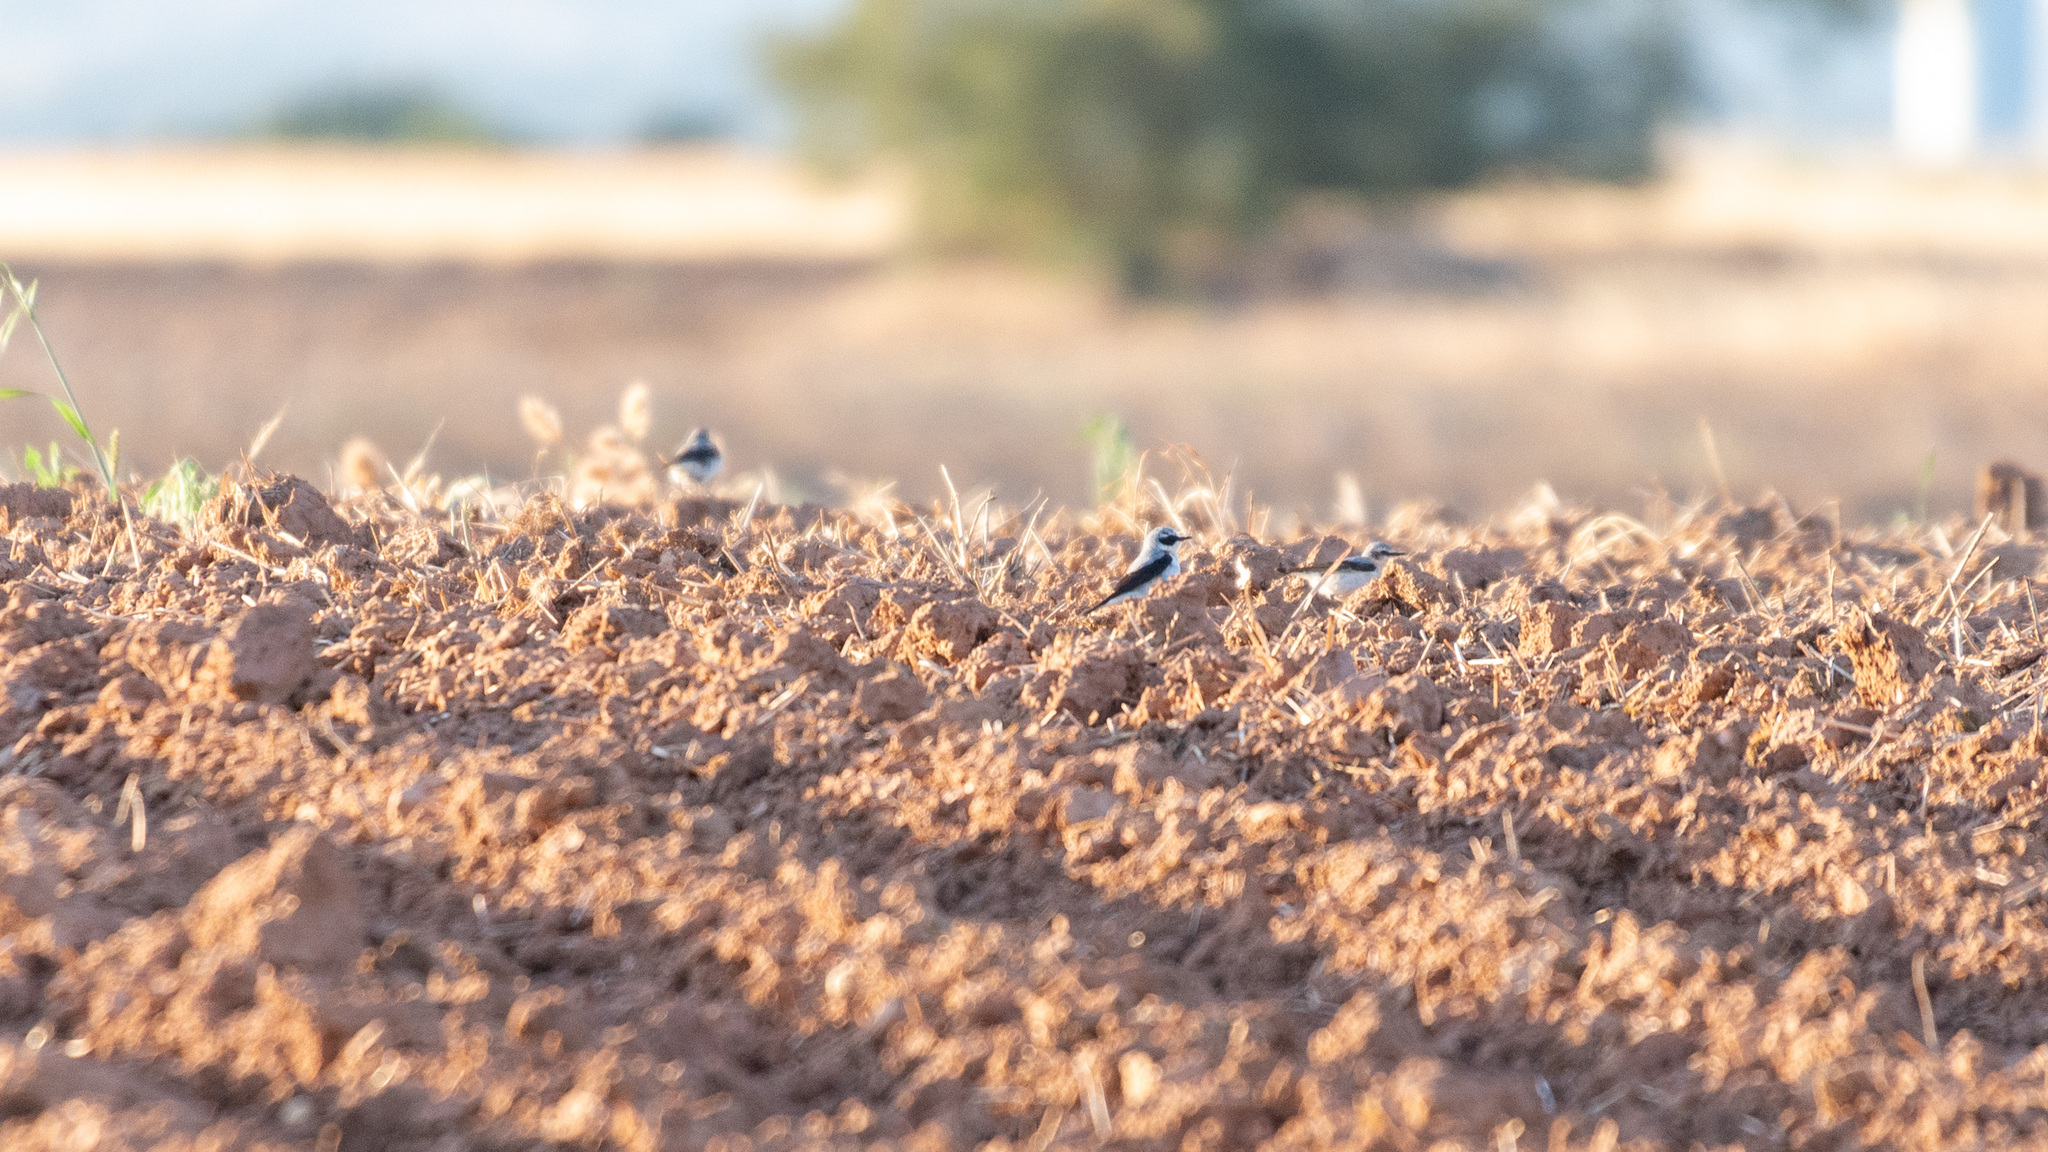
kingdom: Animalia
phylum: Chordata
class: Aves
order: Passeriformes
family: Muscicapidae
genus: Oenanthe
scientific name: Oenanthe oenanthe
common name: Northern wheatear
